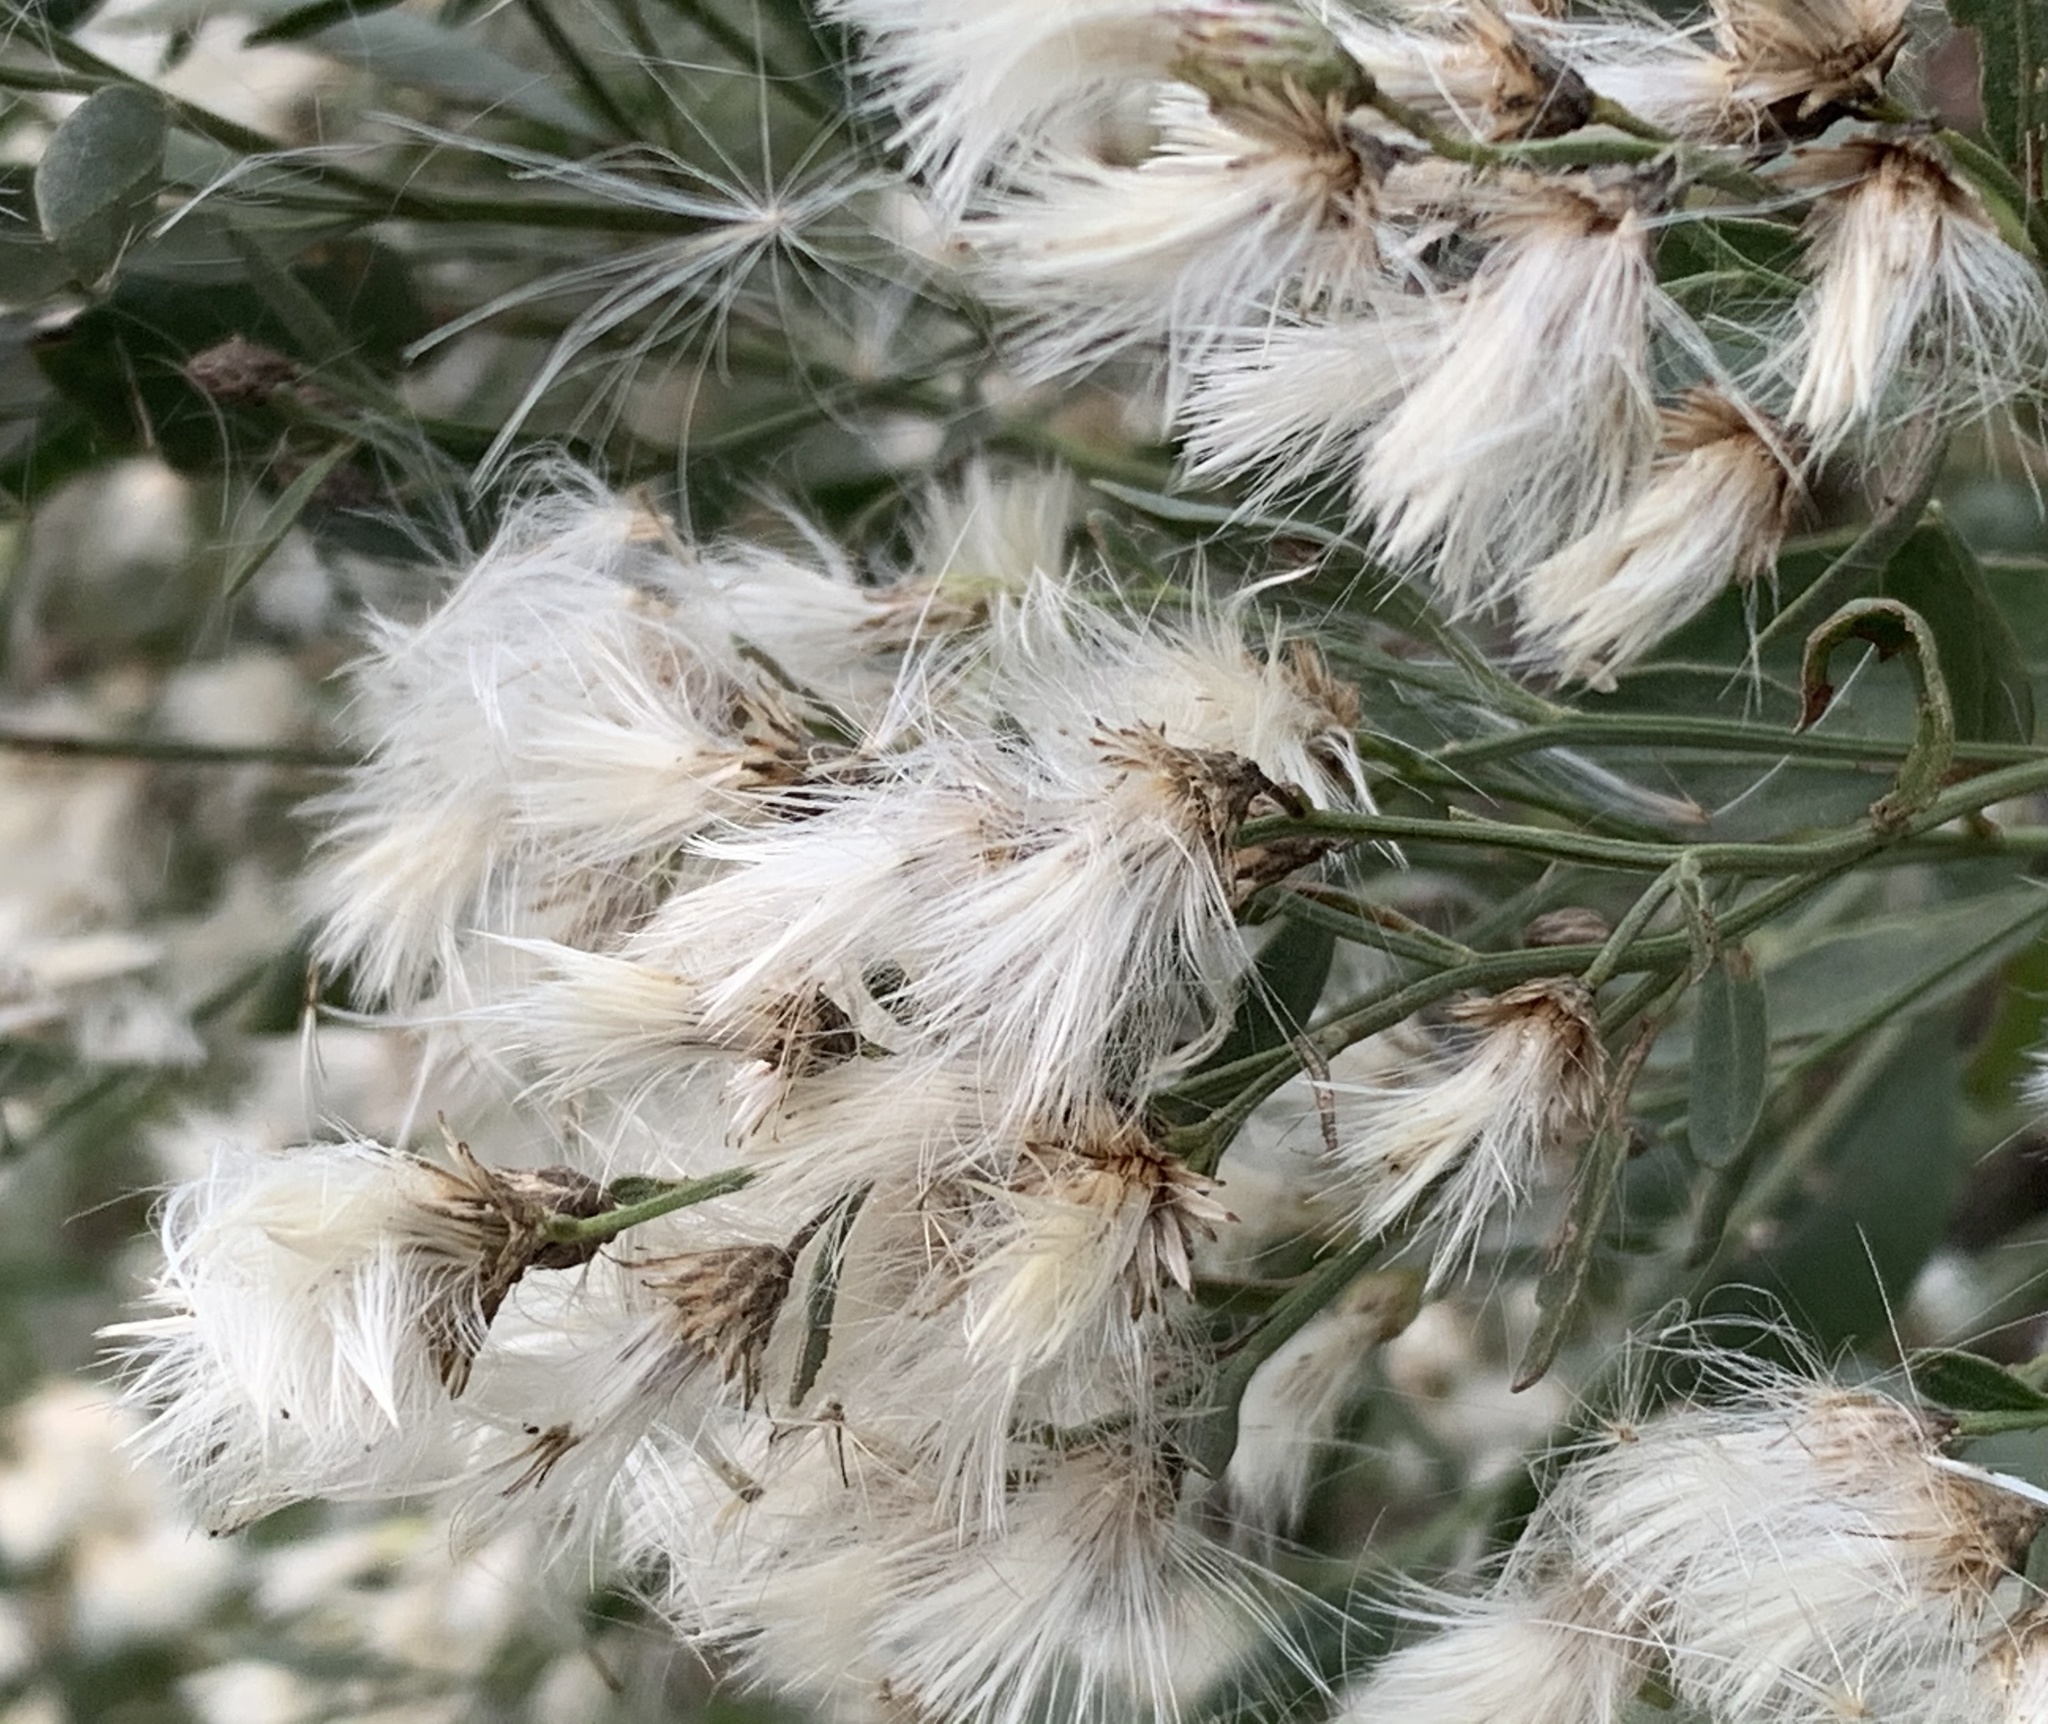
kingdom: Plantae
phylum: Tracheophyta
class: Magnoliopsida
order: Asterales
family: Asteraceae
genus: Baccharis
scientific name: Baccharis halimifolia
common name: Eastern baccharis
